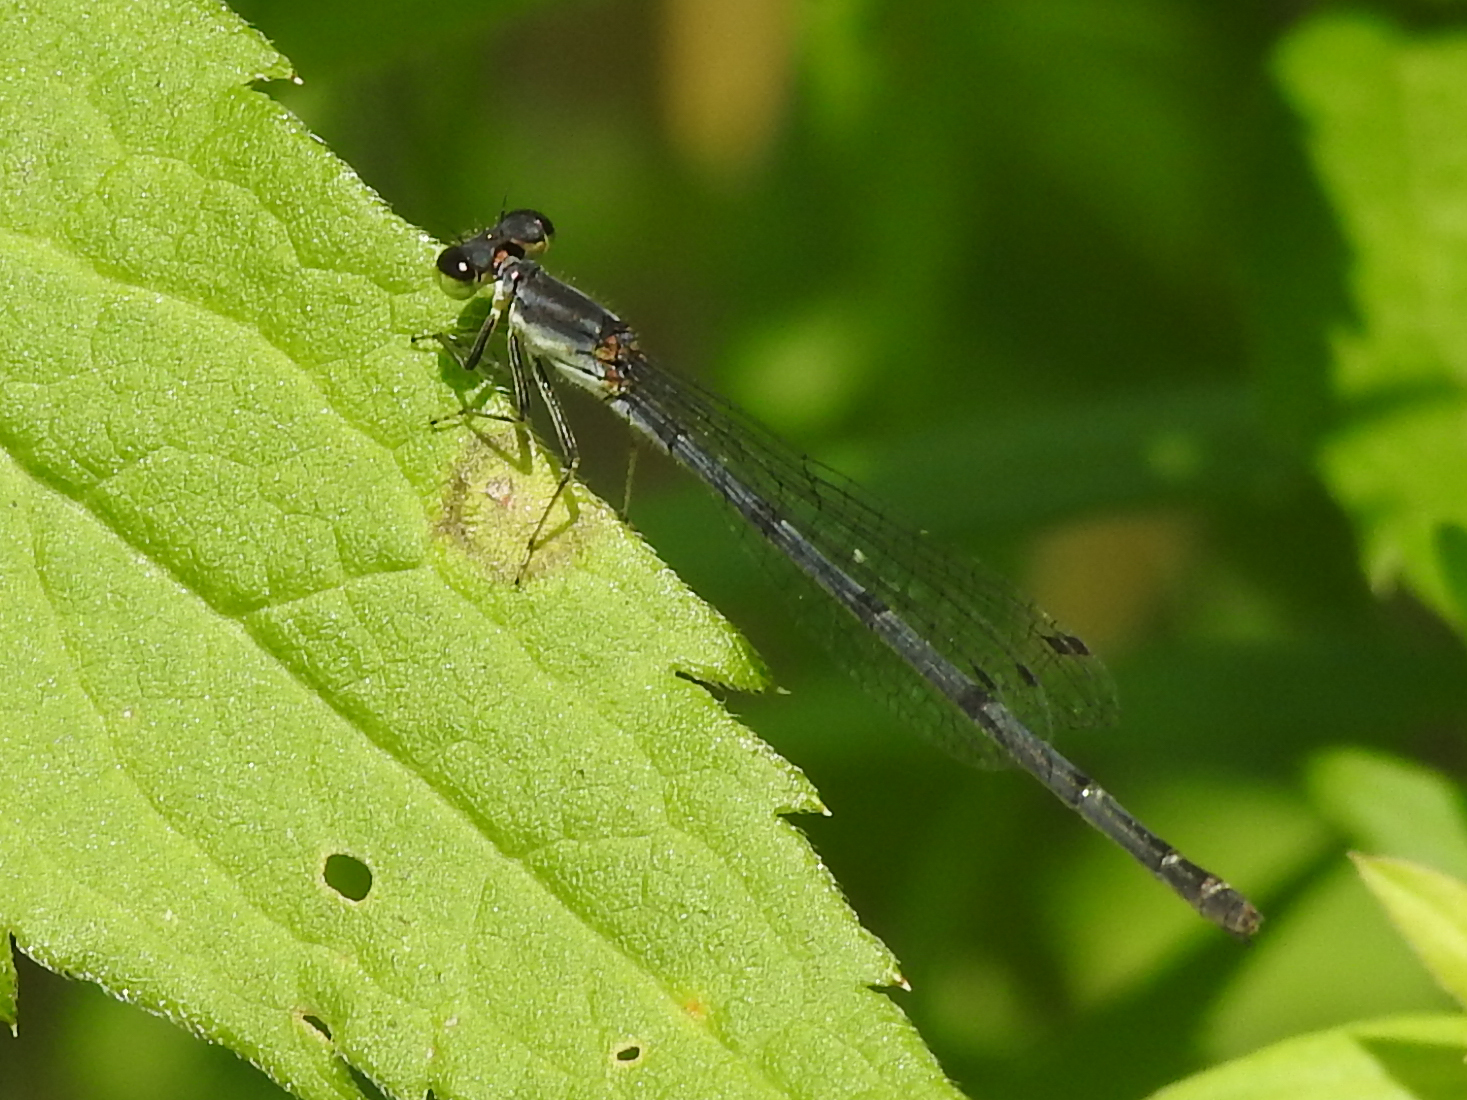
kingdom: Animalia
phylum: Arthropoda
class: Insecta
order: Odonata
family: Coenagrionidae
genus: Ischnura
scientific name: Ischnura posita
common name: Fragile forktail
